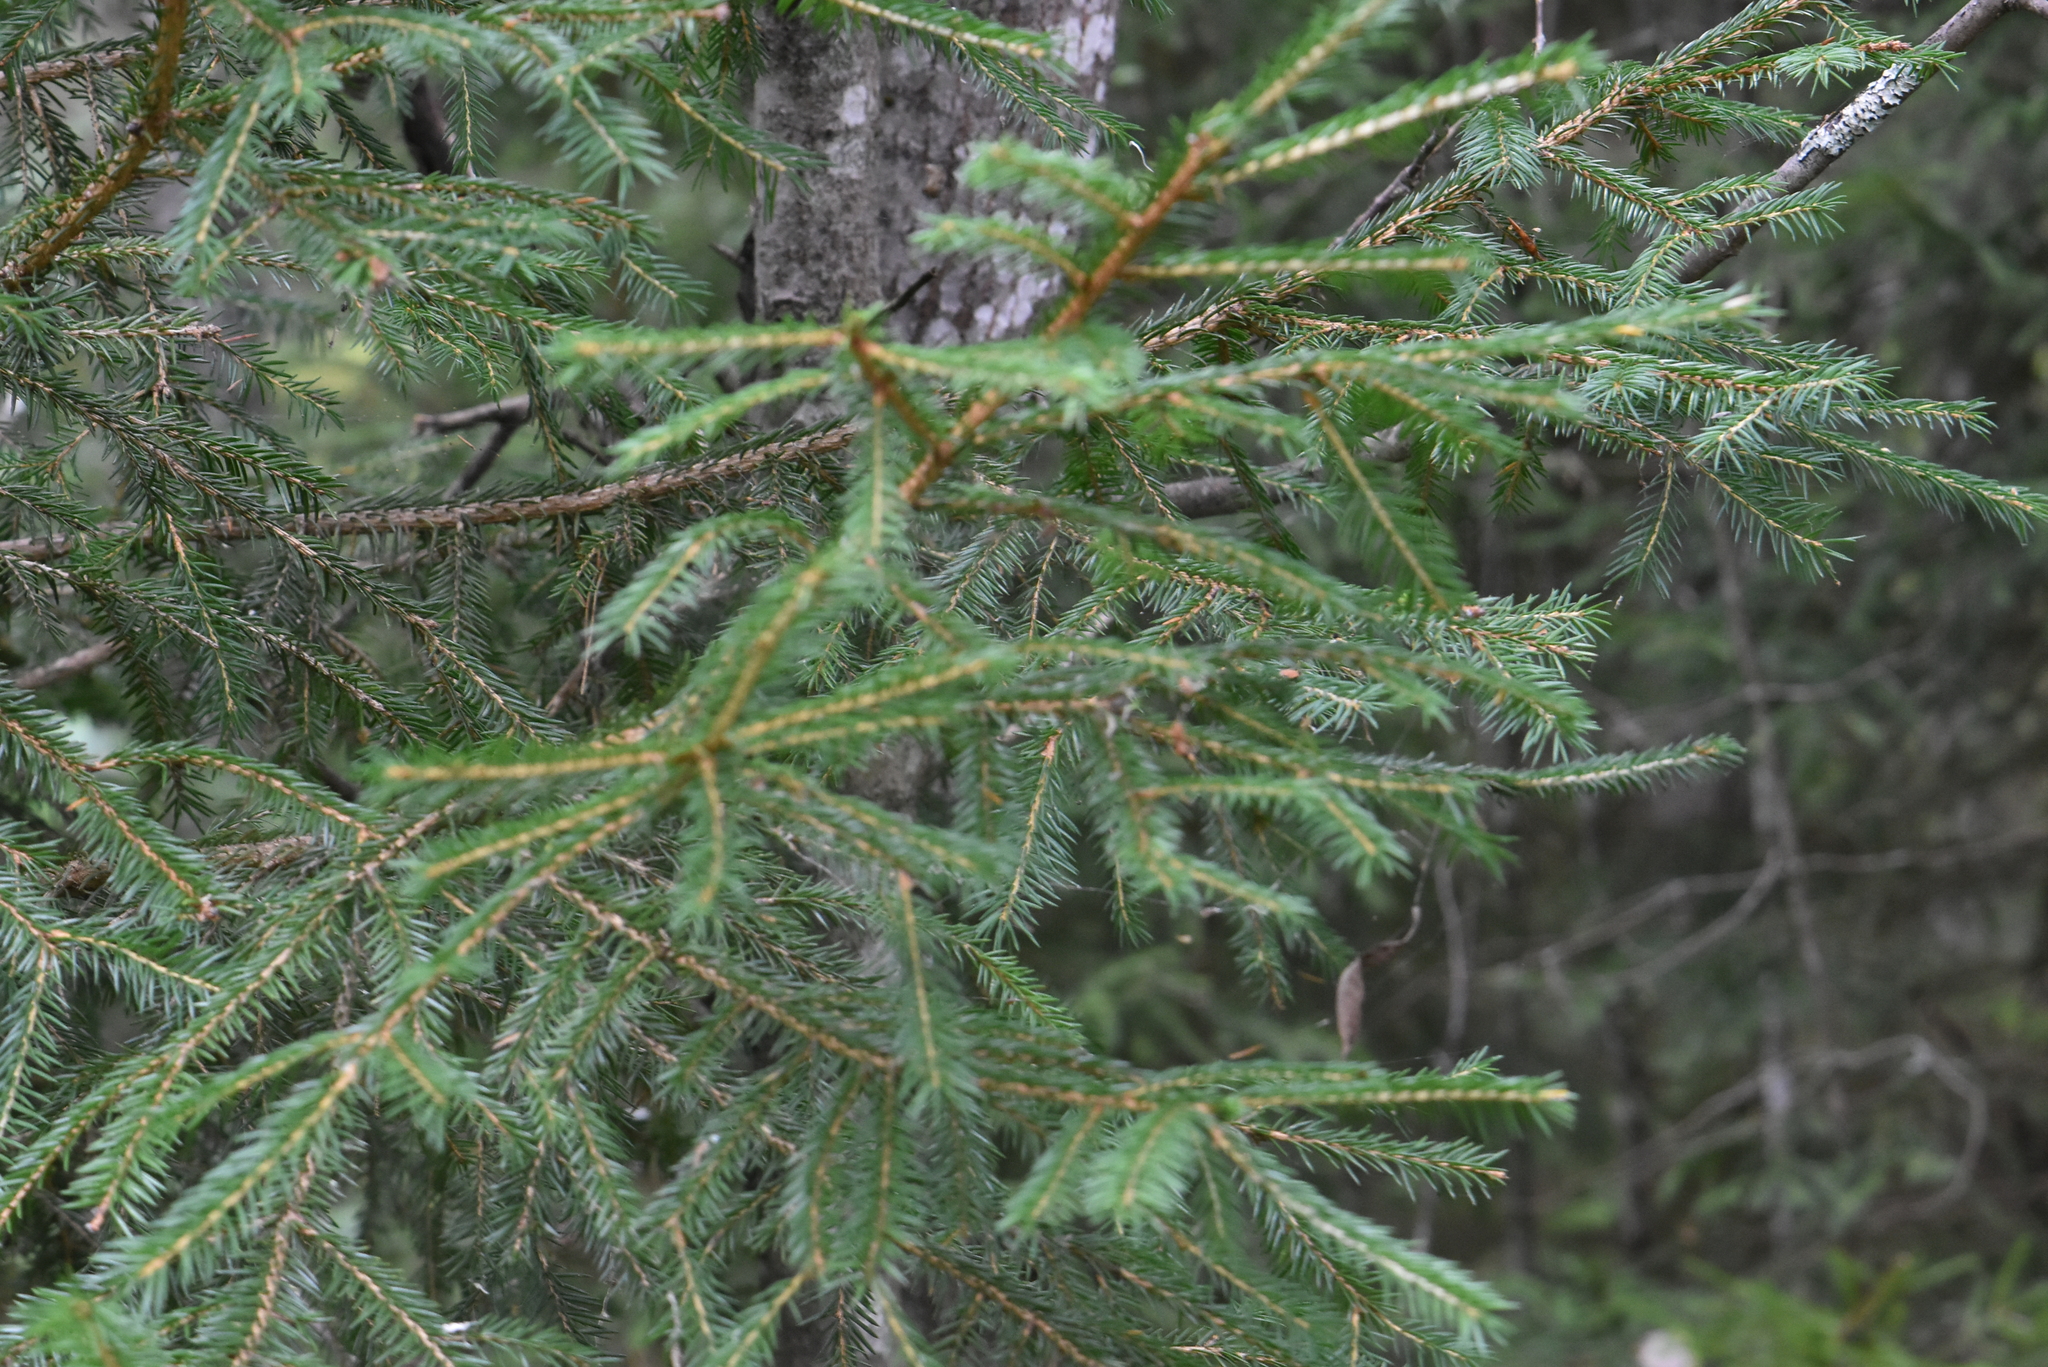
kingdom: Plantae
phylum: Tracheophyta
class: Pinopsida
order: Pinales
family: Pinaceae
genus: Picea
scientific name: Picea abies
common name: Norway spruce
